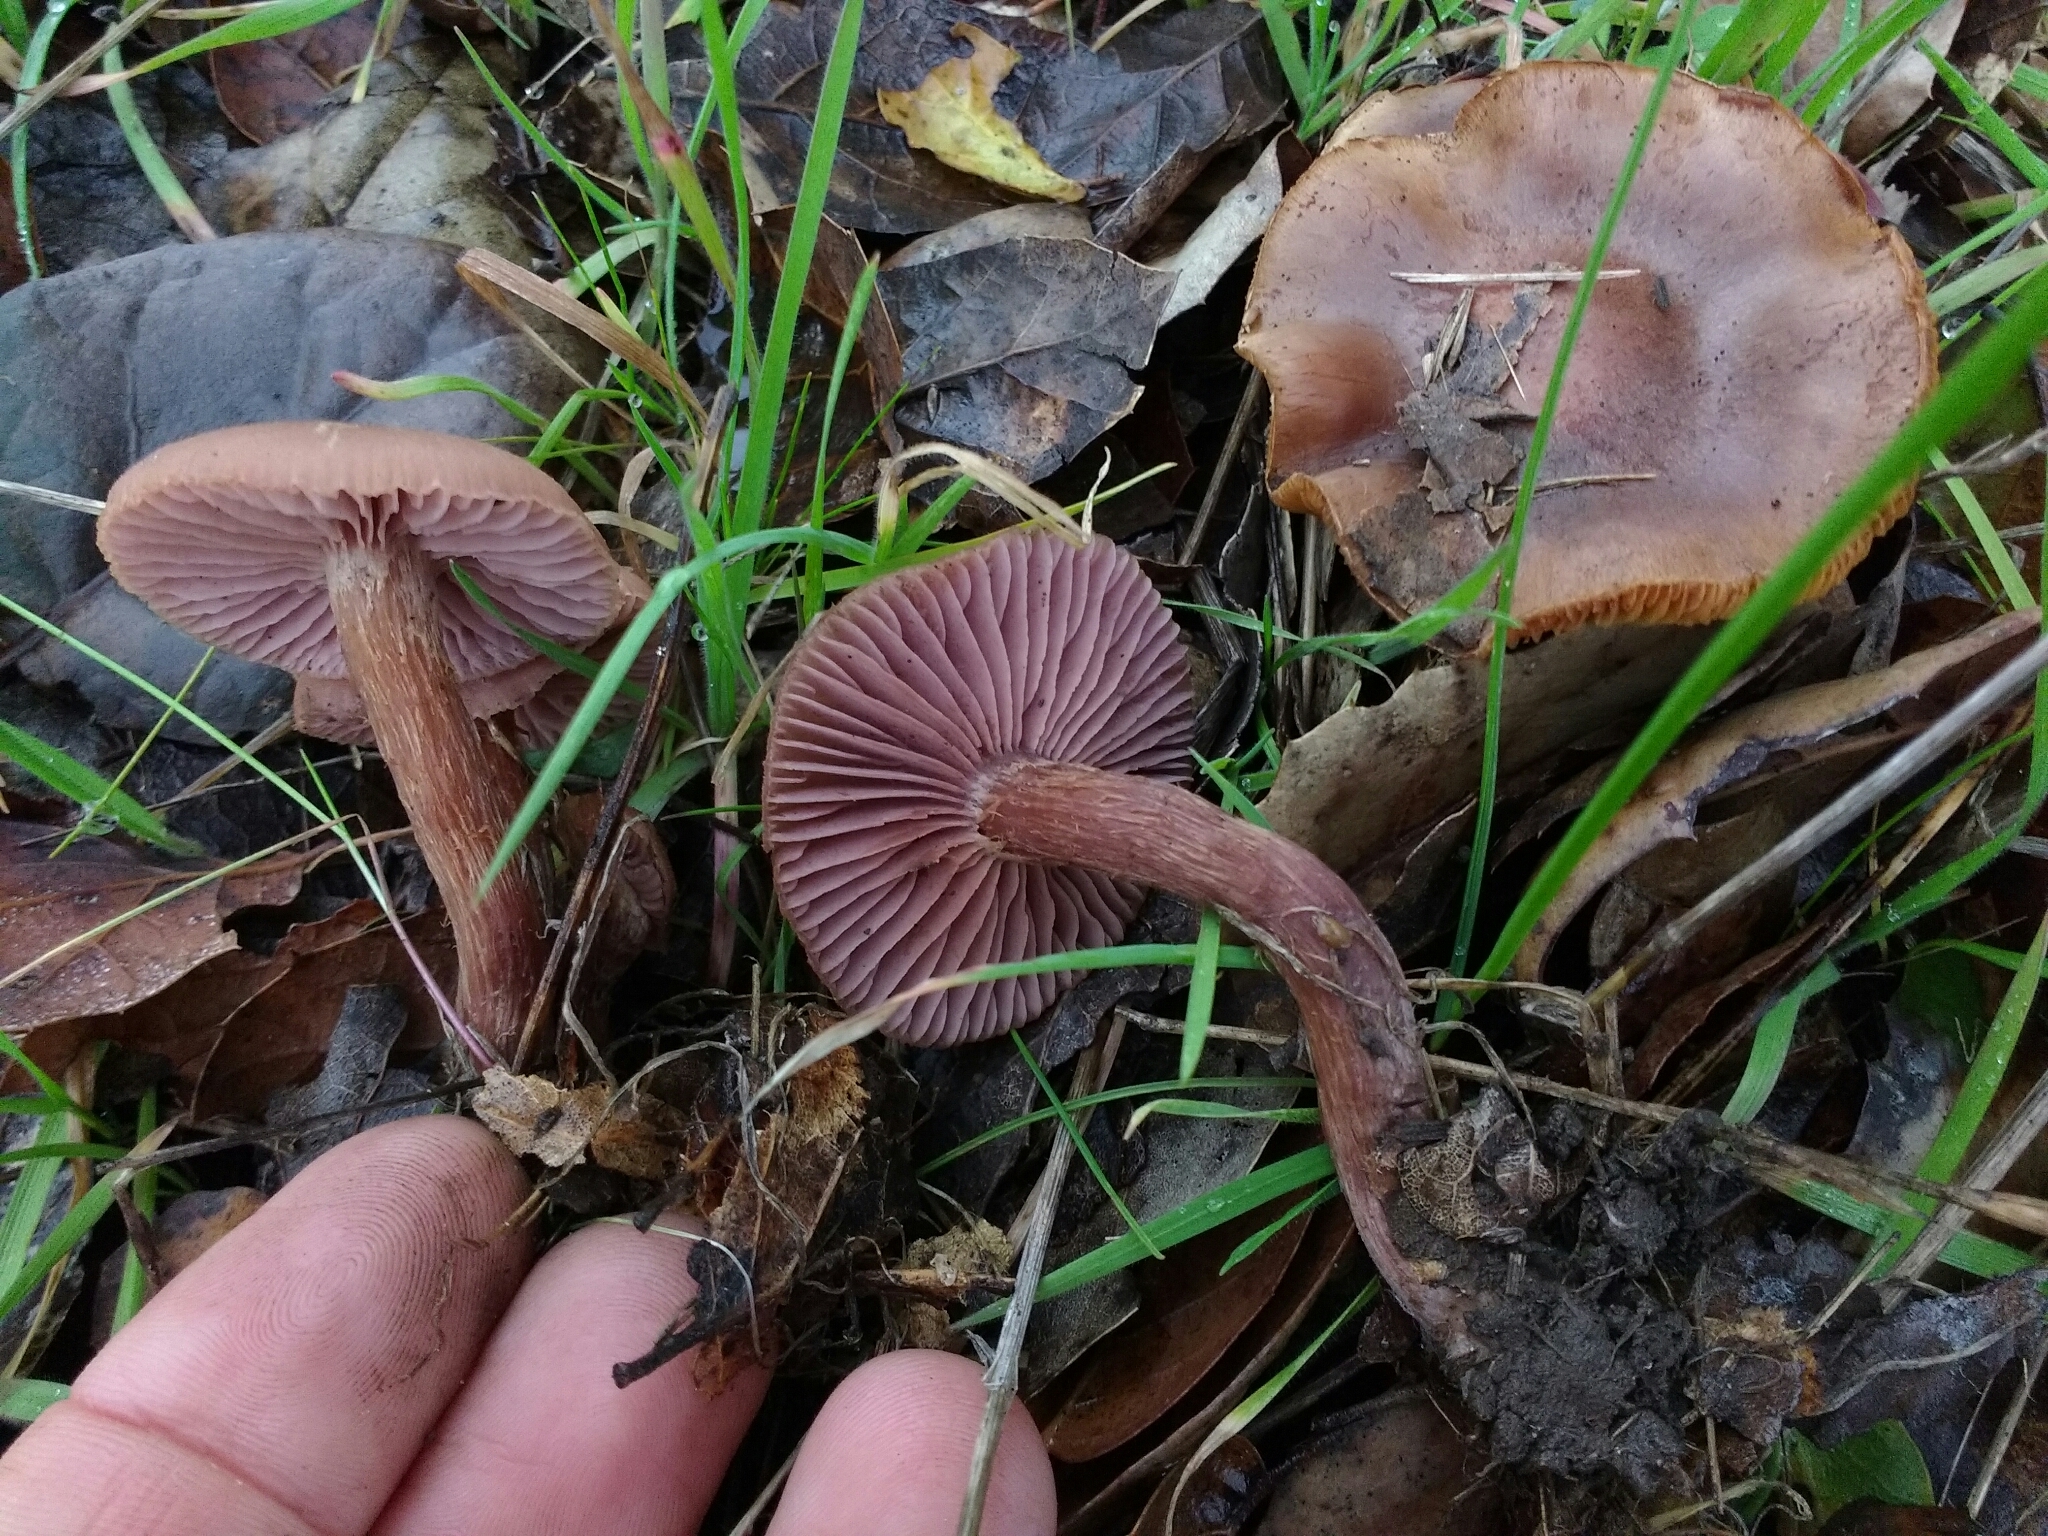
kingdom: Fungi
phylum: Basidiomycota
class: Agaricomycetes
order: Agaricales
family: Hydnangiaceae
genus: Laccaria
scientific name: Laccaria amethysteo-occidentalis
